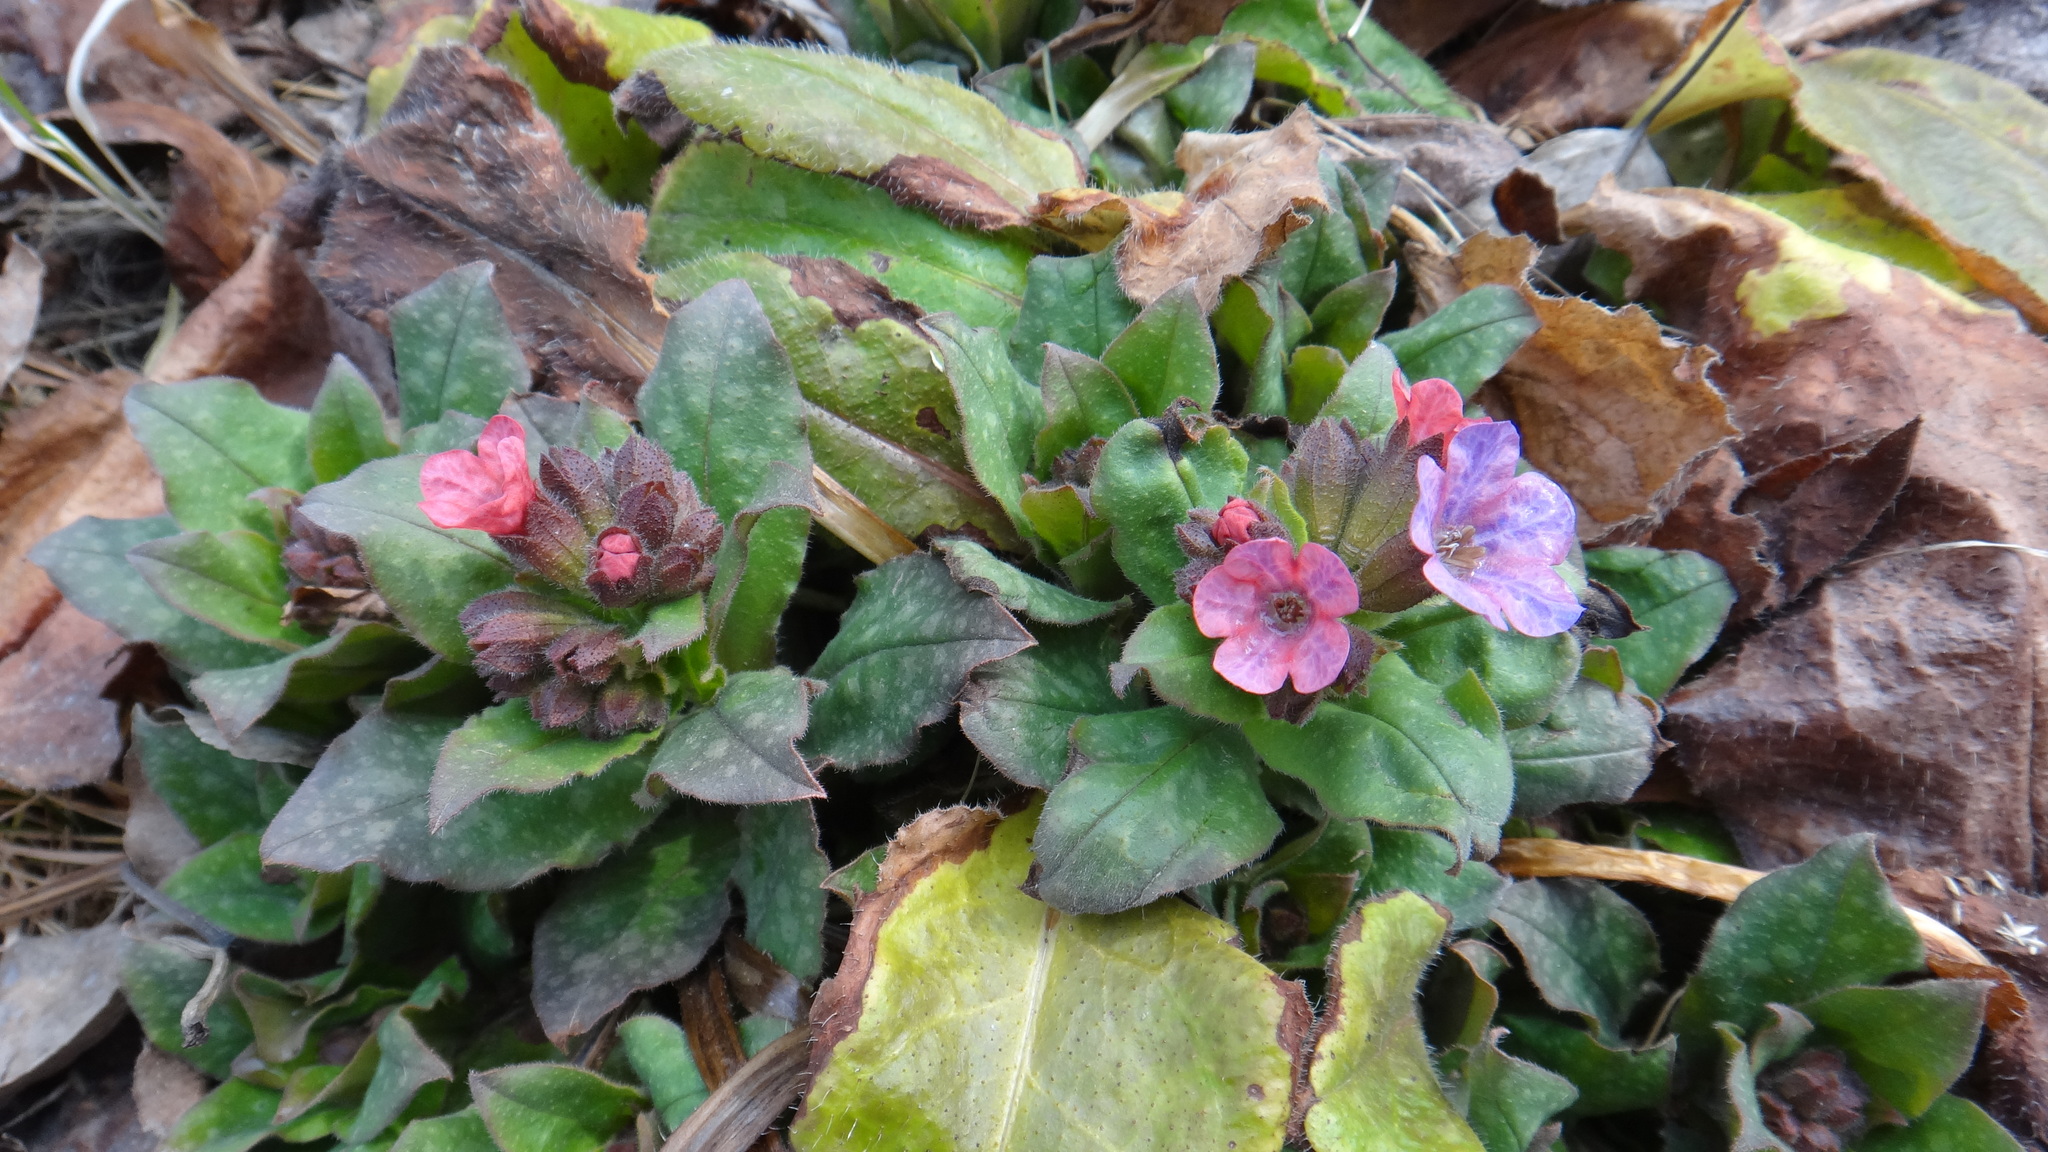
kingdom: Plantae
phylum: Tracheophyta
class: Magnoliopsida
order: Boraginales
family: Boraginaceae
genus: Pulmonaria
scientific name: Pulmonaria obscura
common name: Suffolk lungwort
